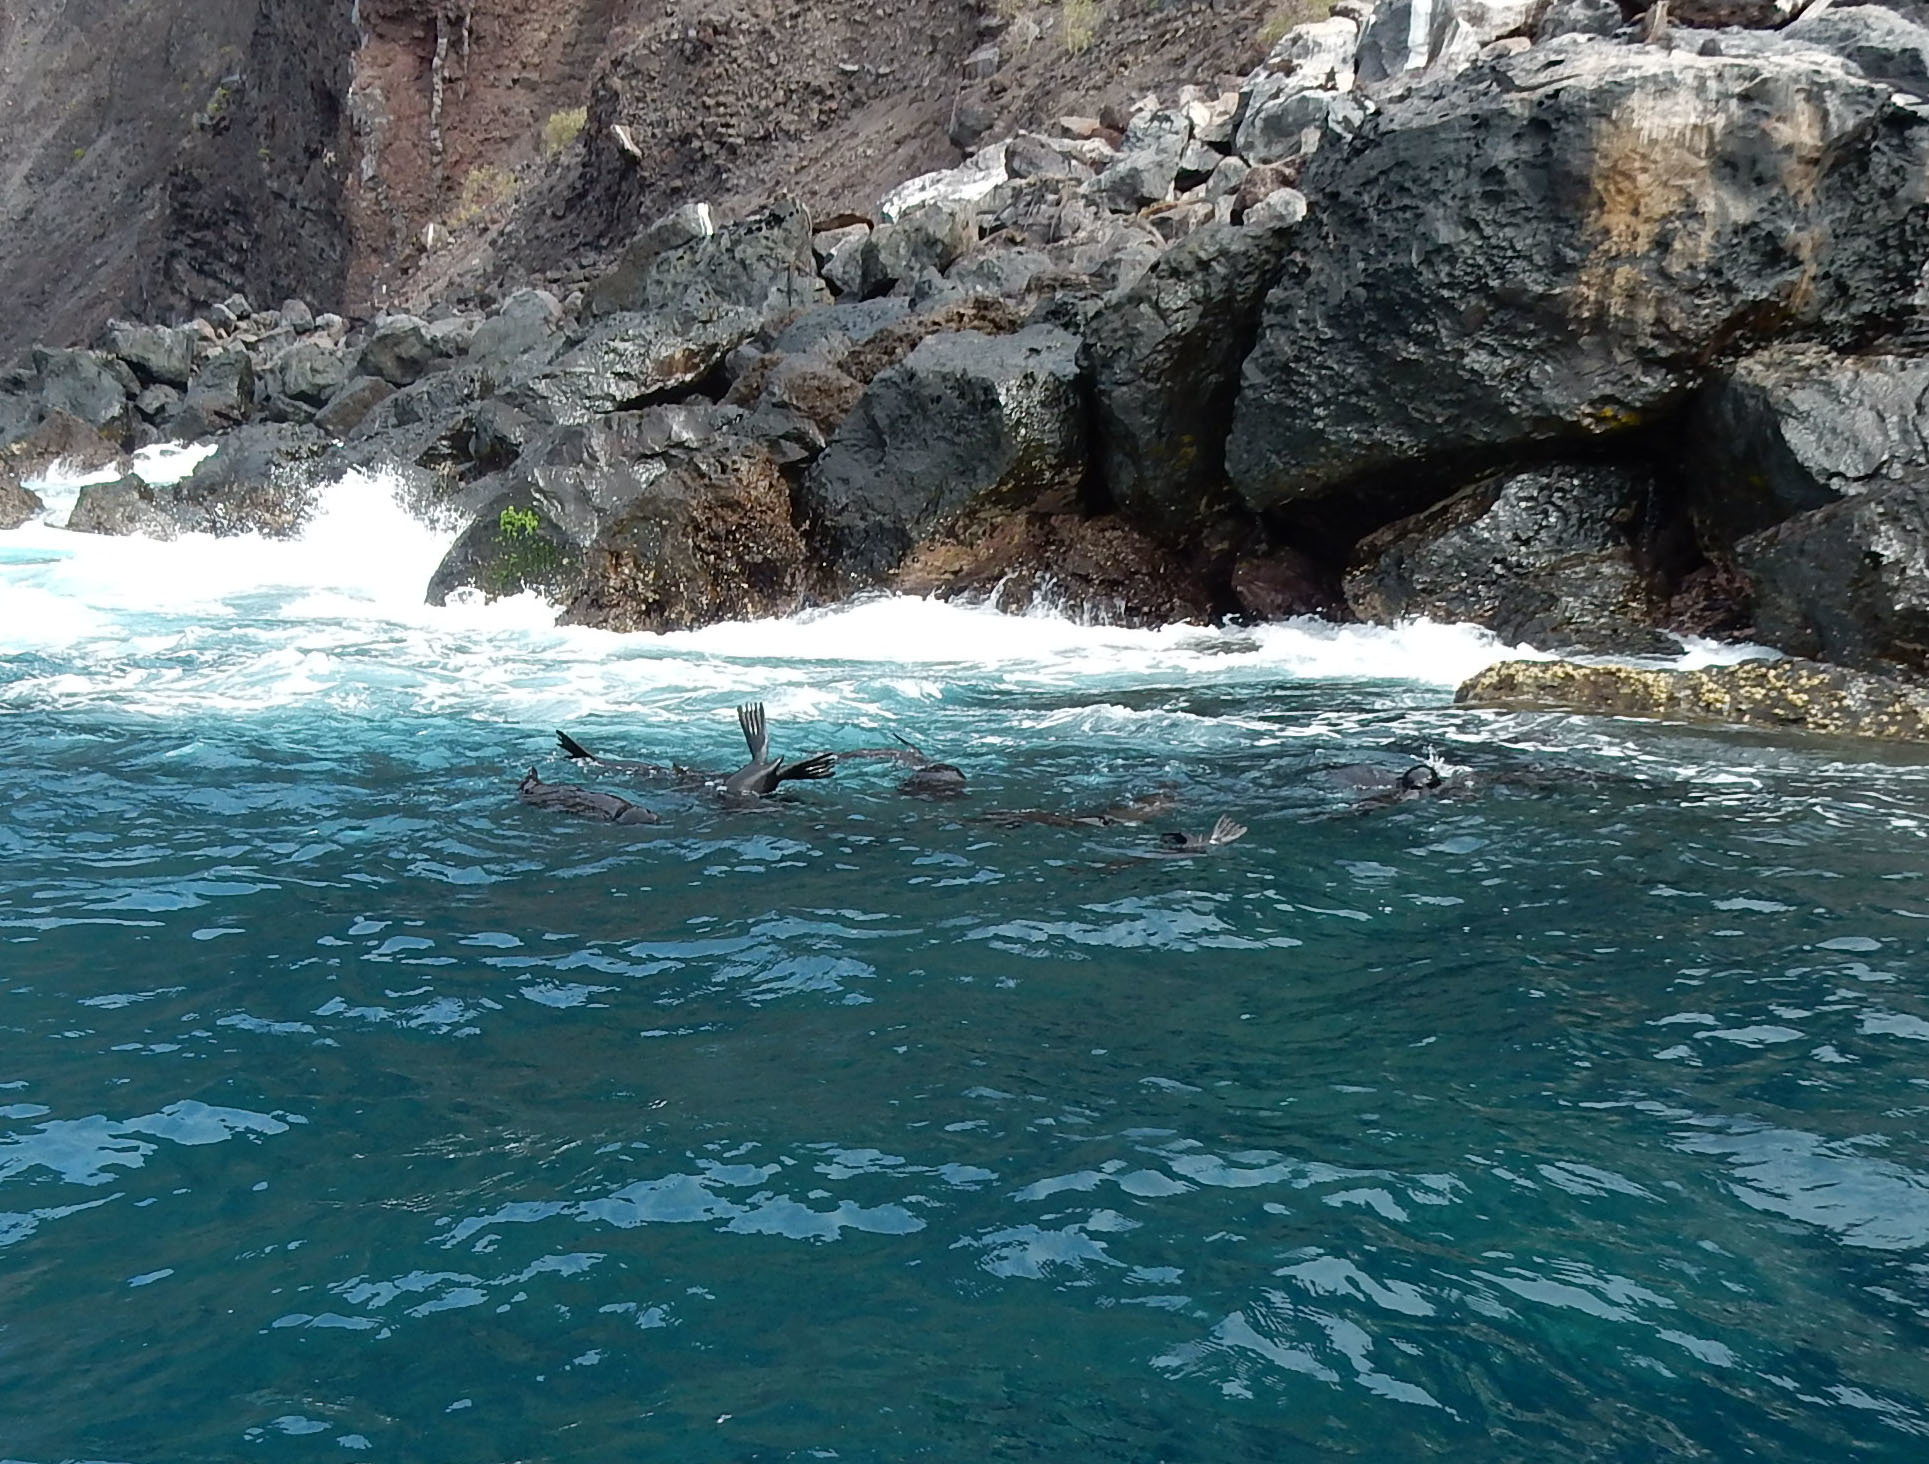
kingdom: Animalia
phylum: Chordata
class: Mammalia
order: Carnivora
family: Otariidae
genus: Zalophus
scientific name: Zalophus wollebaeki
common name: Galapagos sea lion
